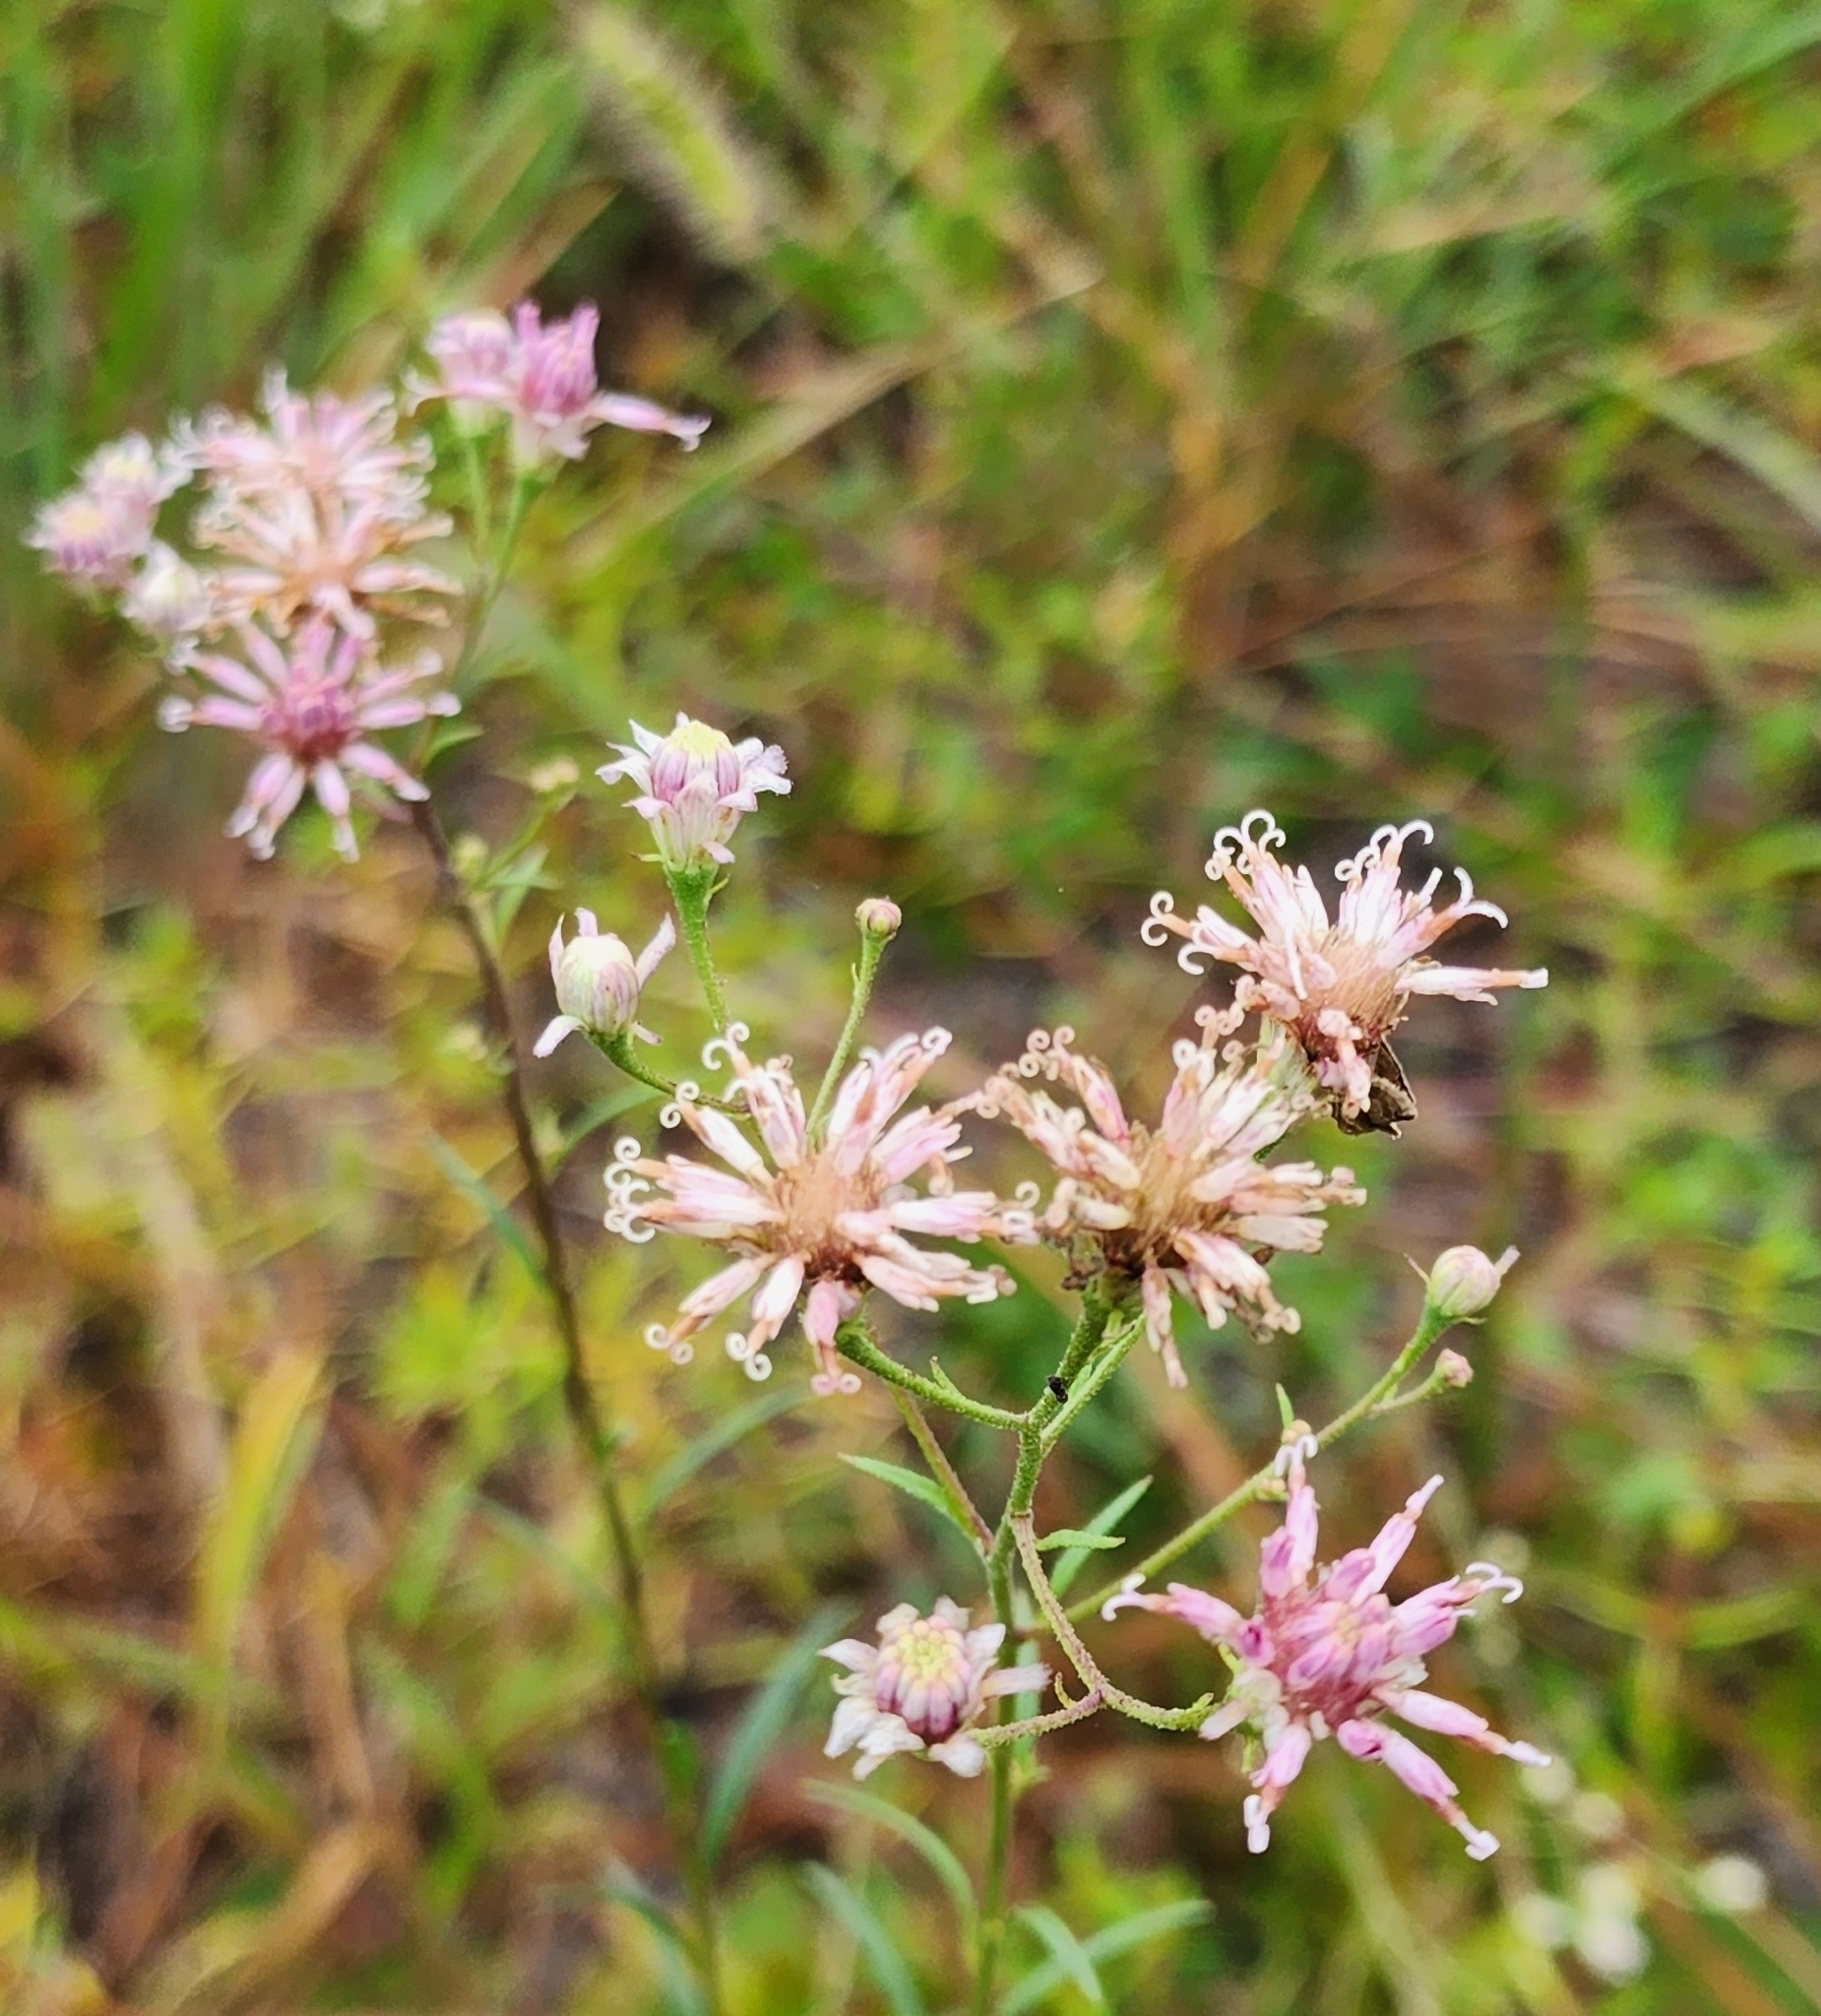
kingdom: Plantae
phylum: Tracheophyta
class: Magnoliopsida
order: Asterales
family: Asteraceae
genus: Palafoxia
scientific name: Palafoxia integrifolia
